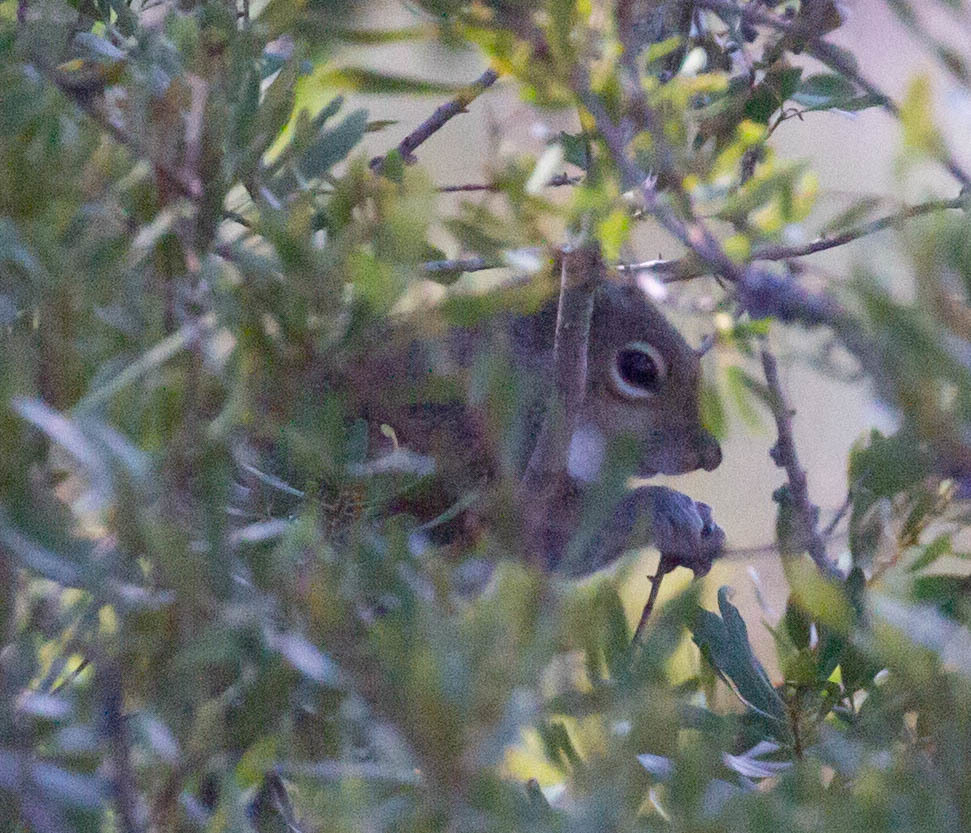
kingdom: Animalia
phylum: Chordata
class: Mammalia
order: Rodentia
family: Sciuridae
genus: Sciurus
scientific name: Sciurus carolinensis
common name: Eastern gray squirrel
